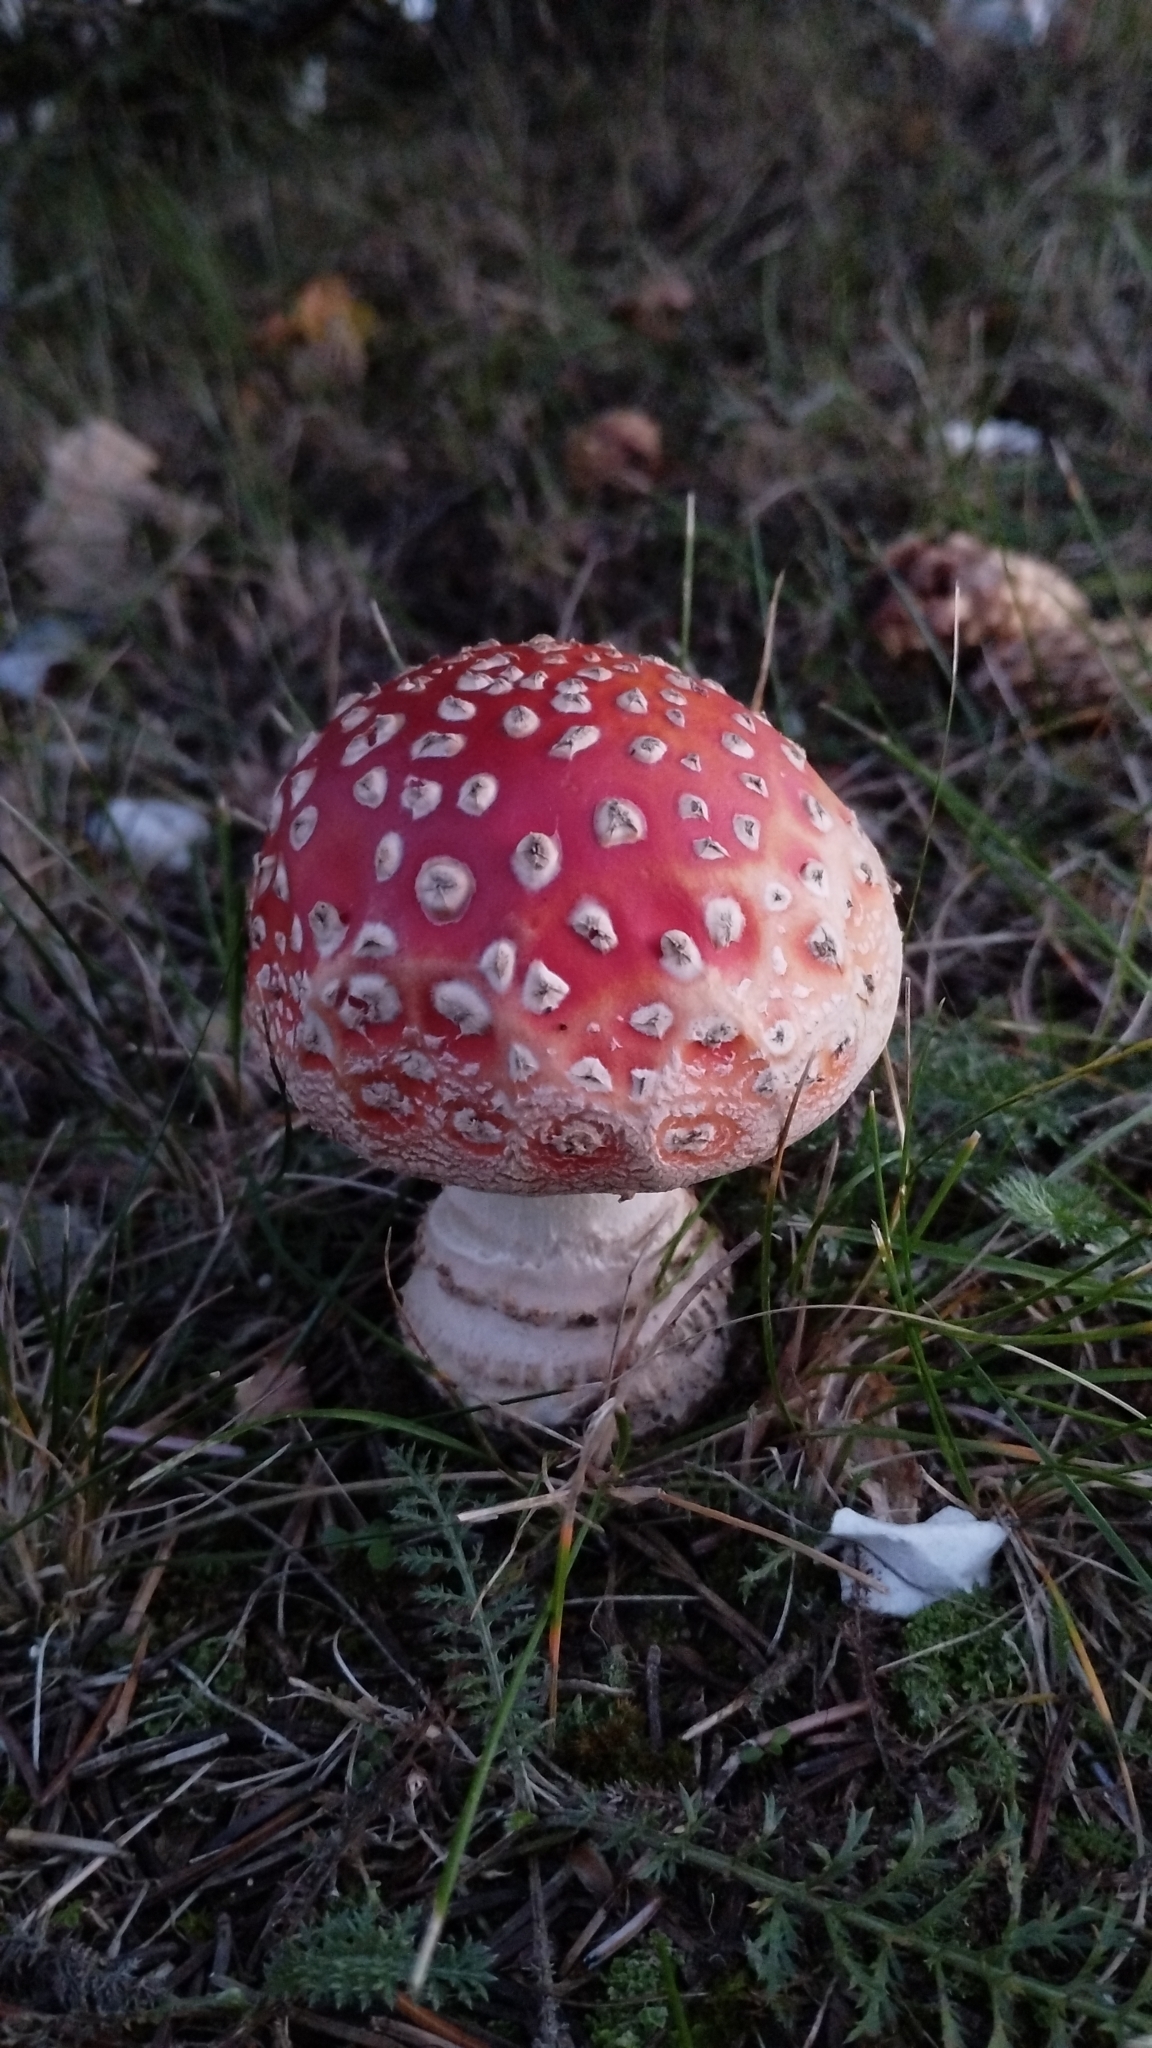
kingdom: Fungi
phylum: Basidiomycota
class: Agaricomycetes
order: Agaricales
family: Amanitaceae
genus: Amanita
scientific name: Amanita muscaria
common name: Fly agaric
